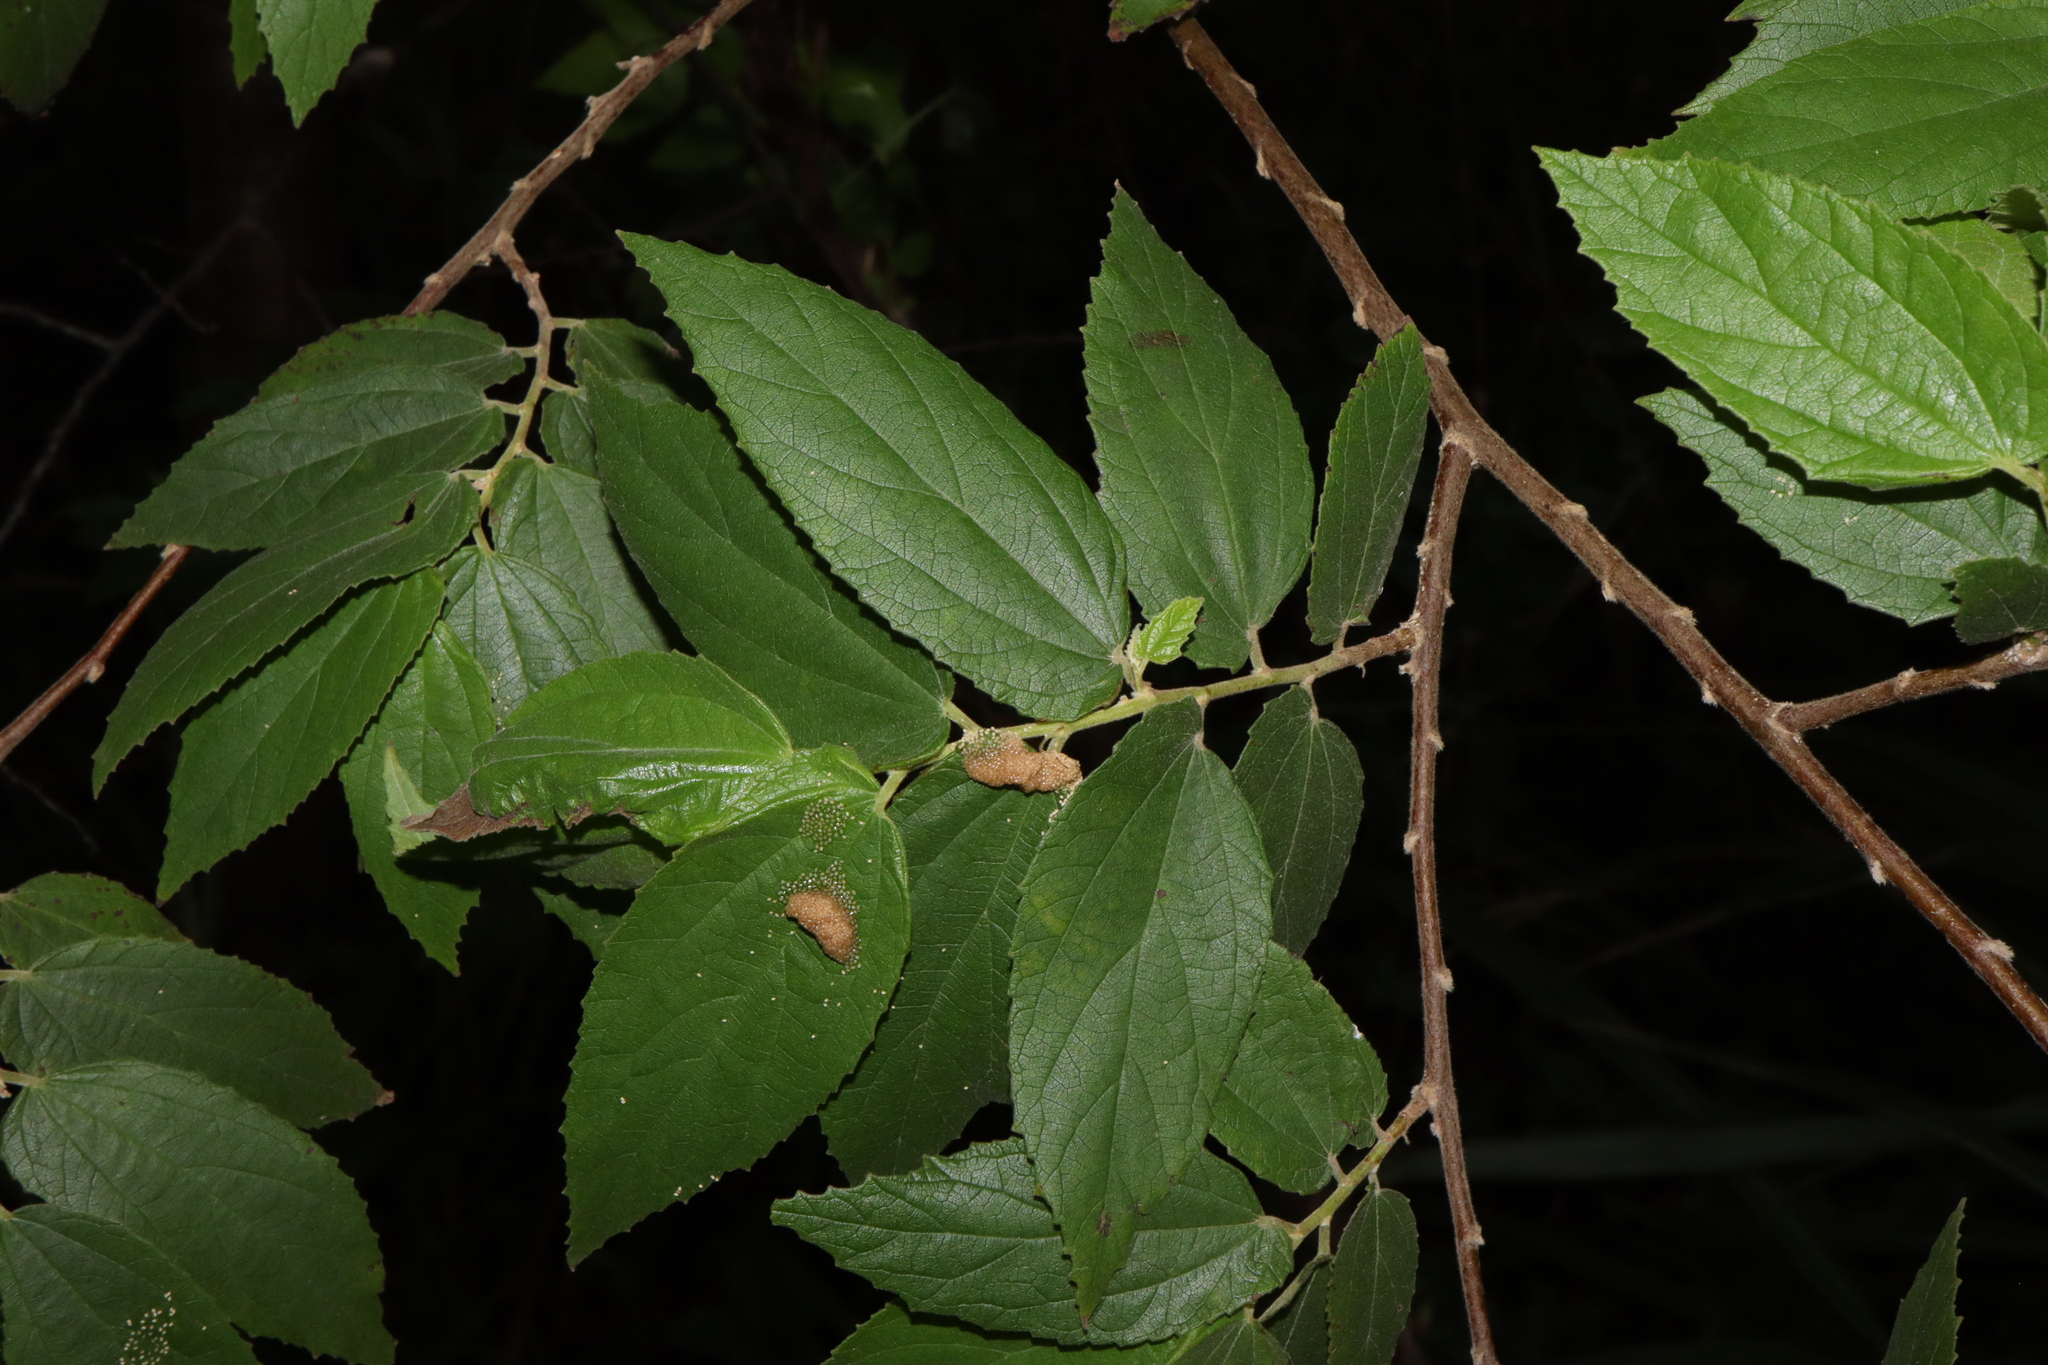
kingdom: Plantae
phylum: Tracheophyta
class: Magnoliopsida
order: Malvales
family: Muntingiaceae
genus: Muntingia
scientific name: Muntingia calabura
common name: Strawberrytree
